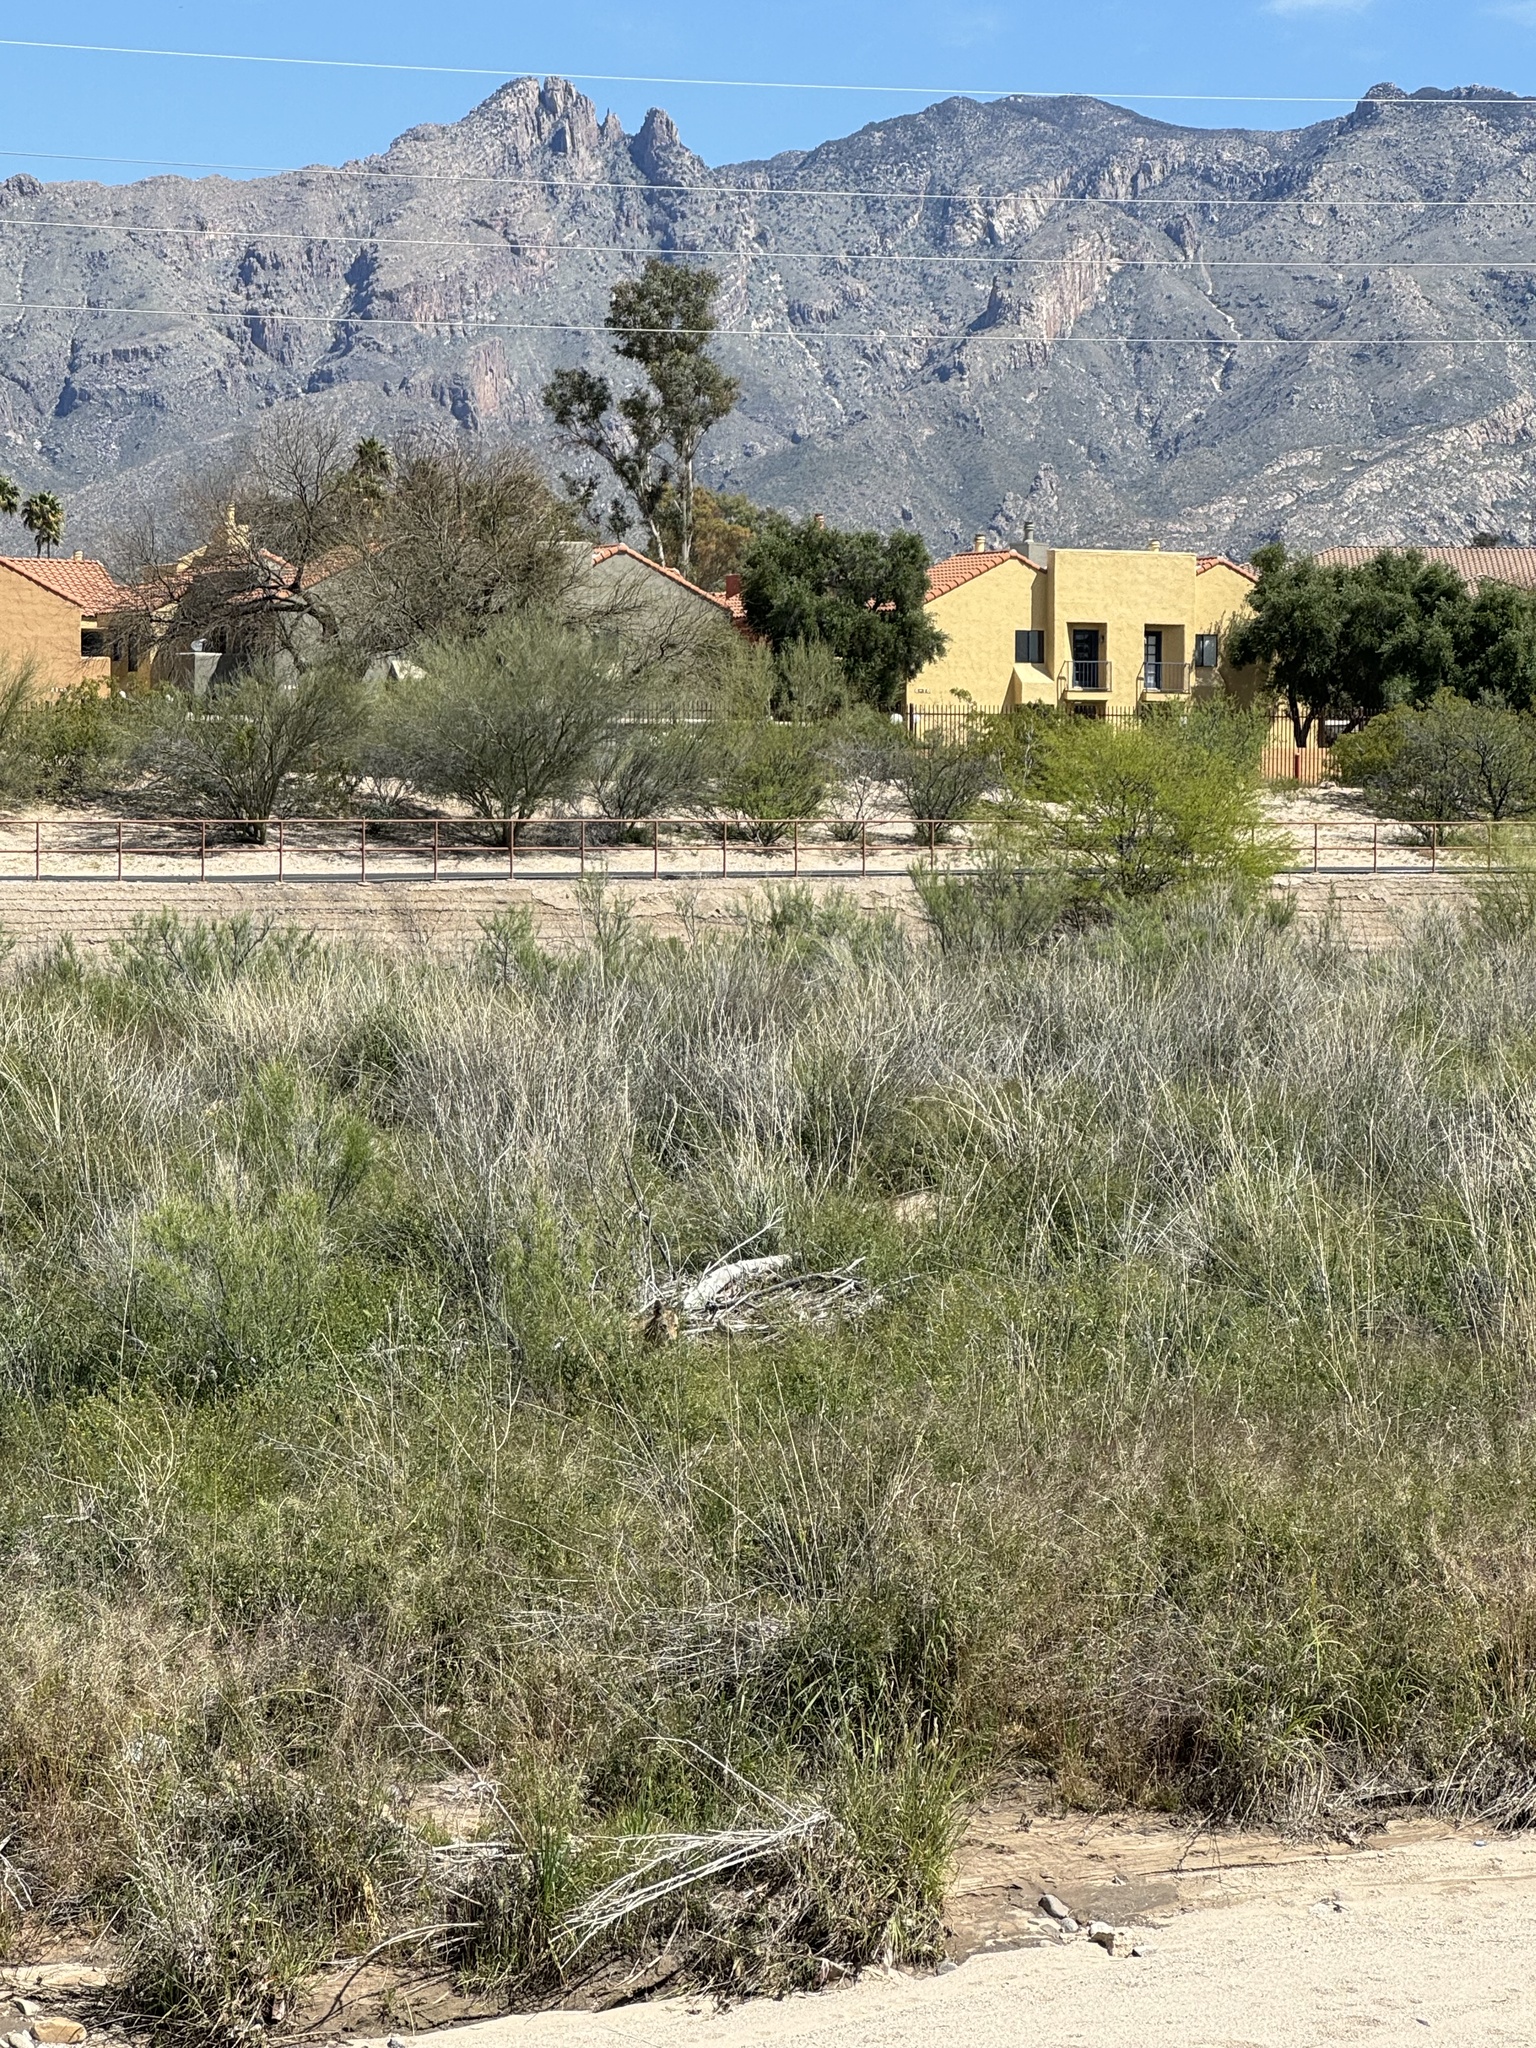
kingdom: Animalia
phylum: Chordata
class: Mammalia
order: Carnivora
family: Canidae
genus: Canis
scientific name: Canis latrans
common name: Coyote
